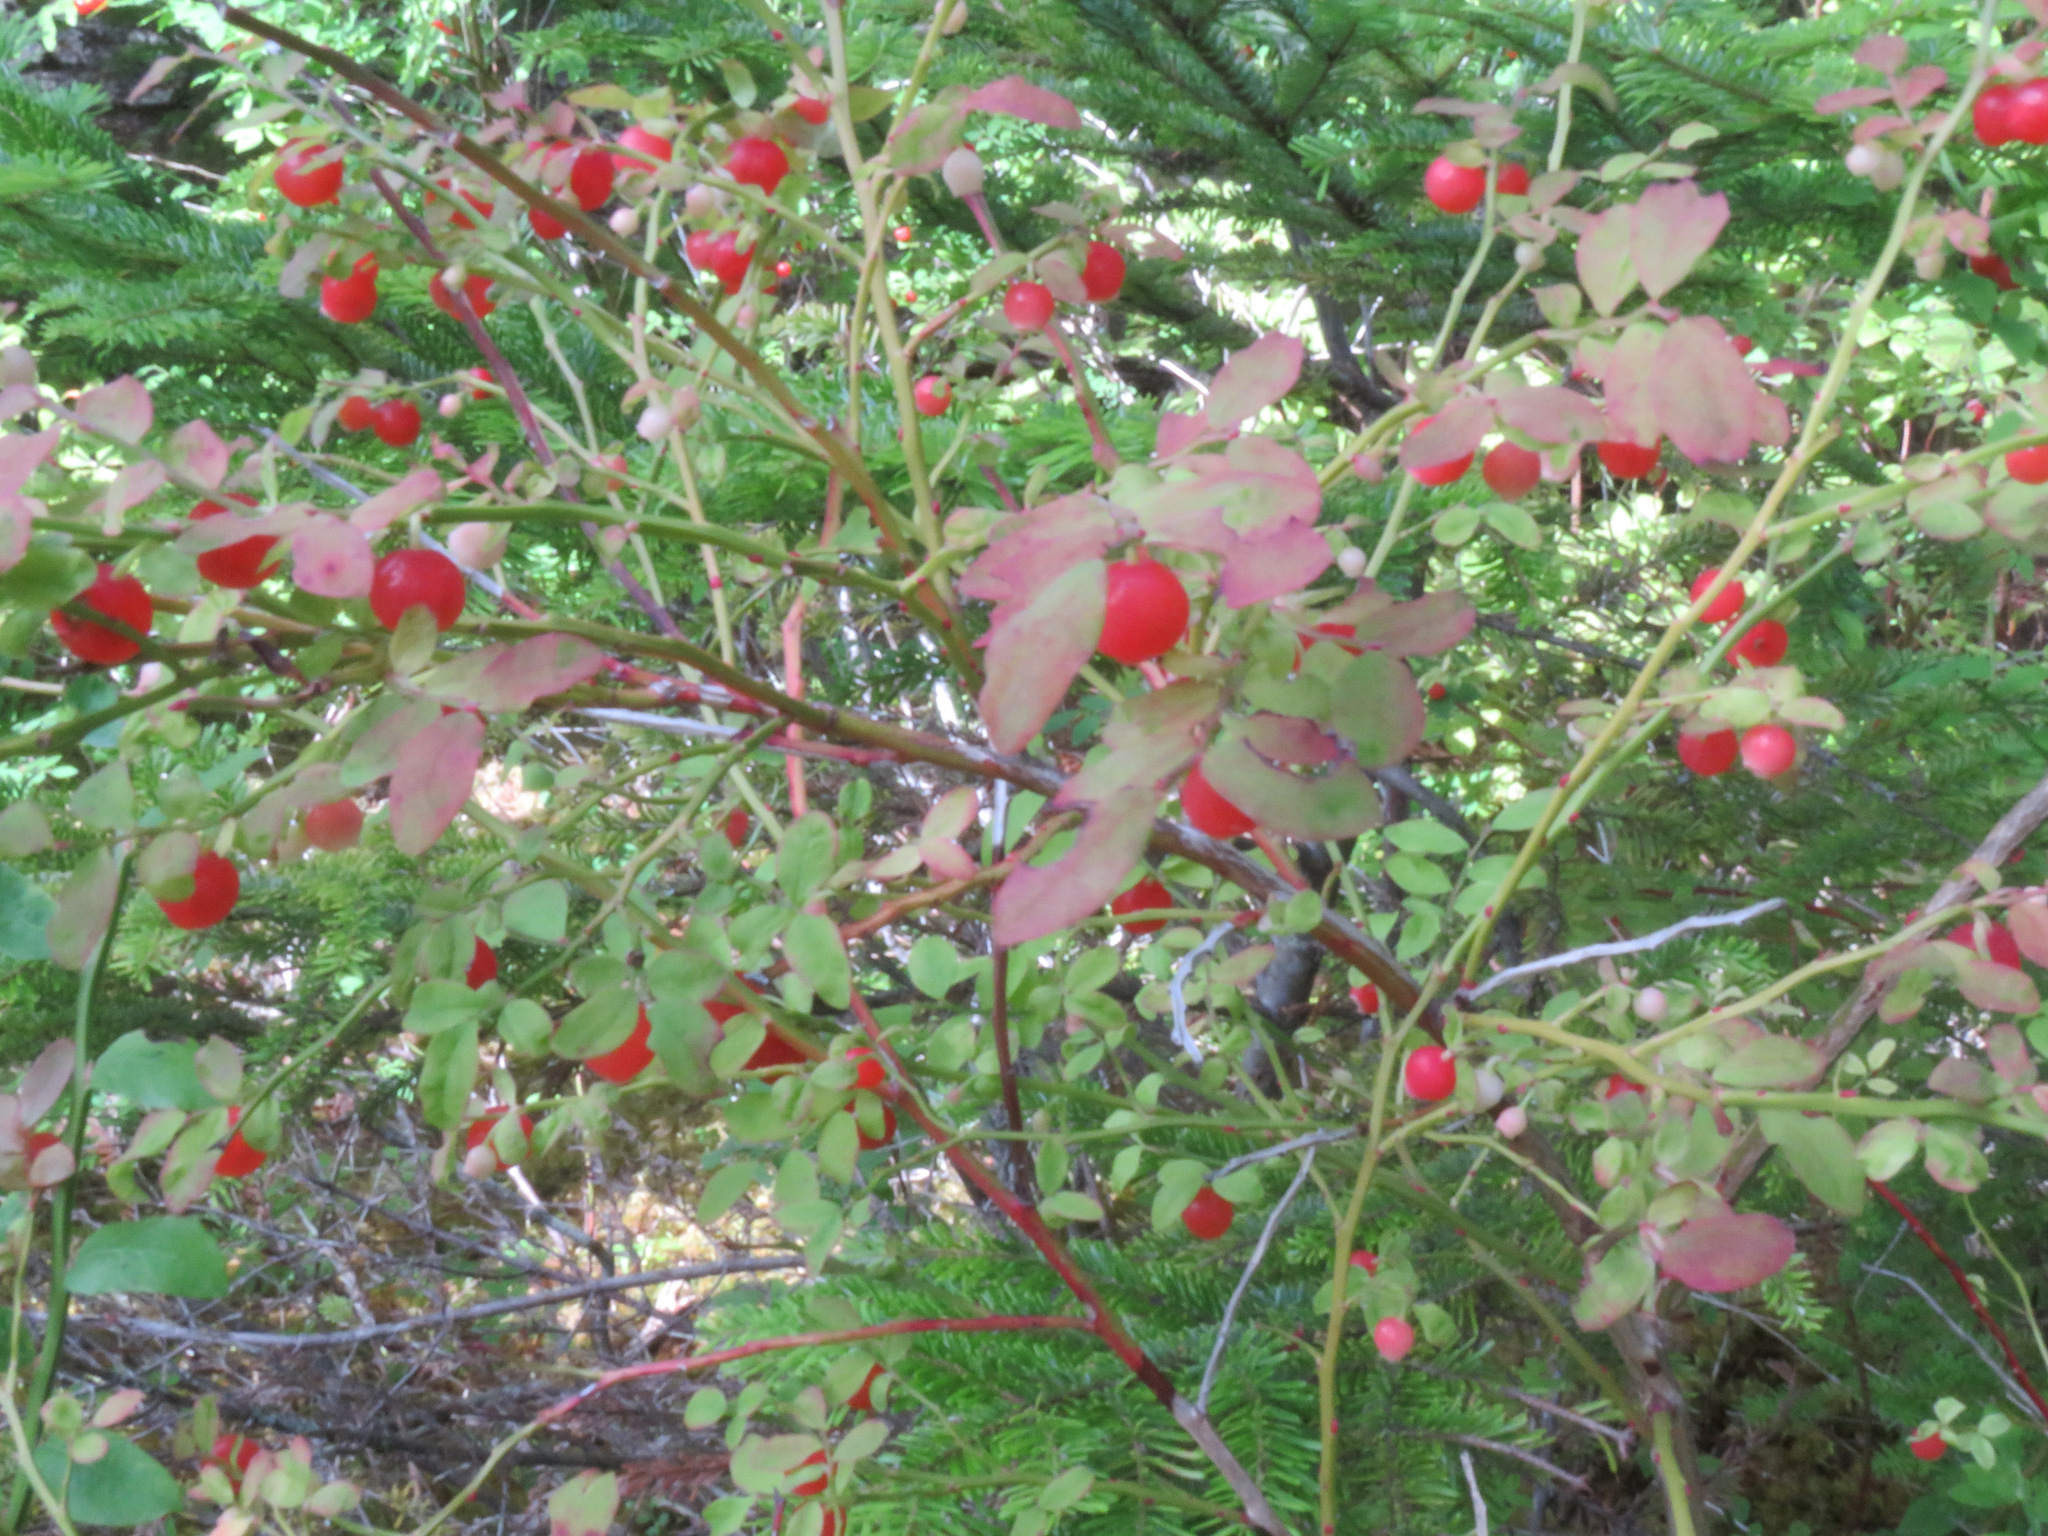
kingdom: Plantae
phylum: Tracheophyta
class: Magnoliopsida
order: Ericales
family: Ericaceae
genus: Vaccinium
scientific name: Vaccinium parvifolium
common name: Red-huckleberry
